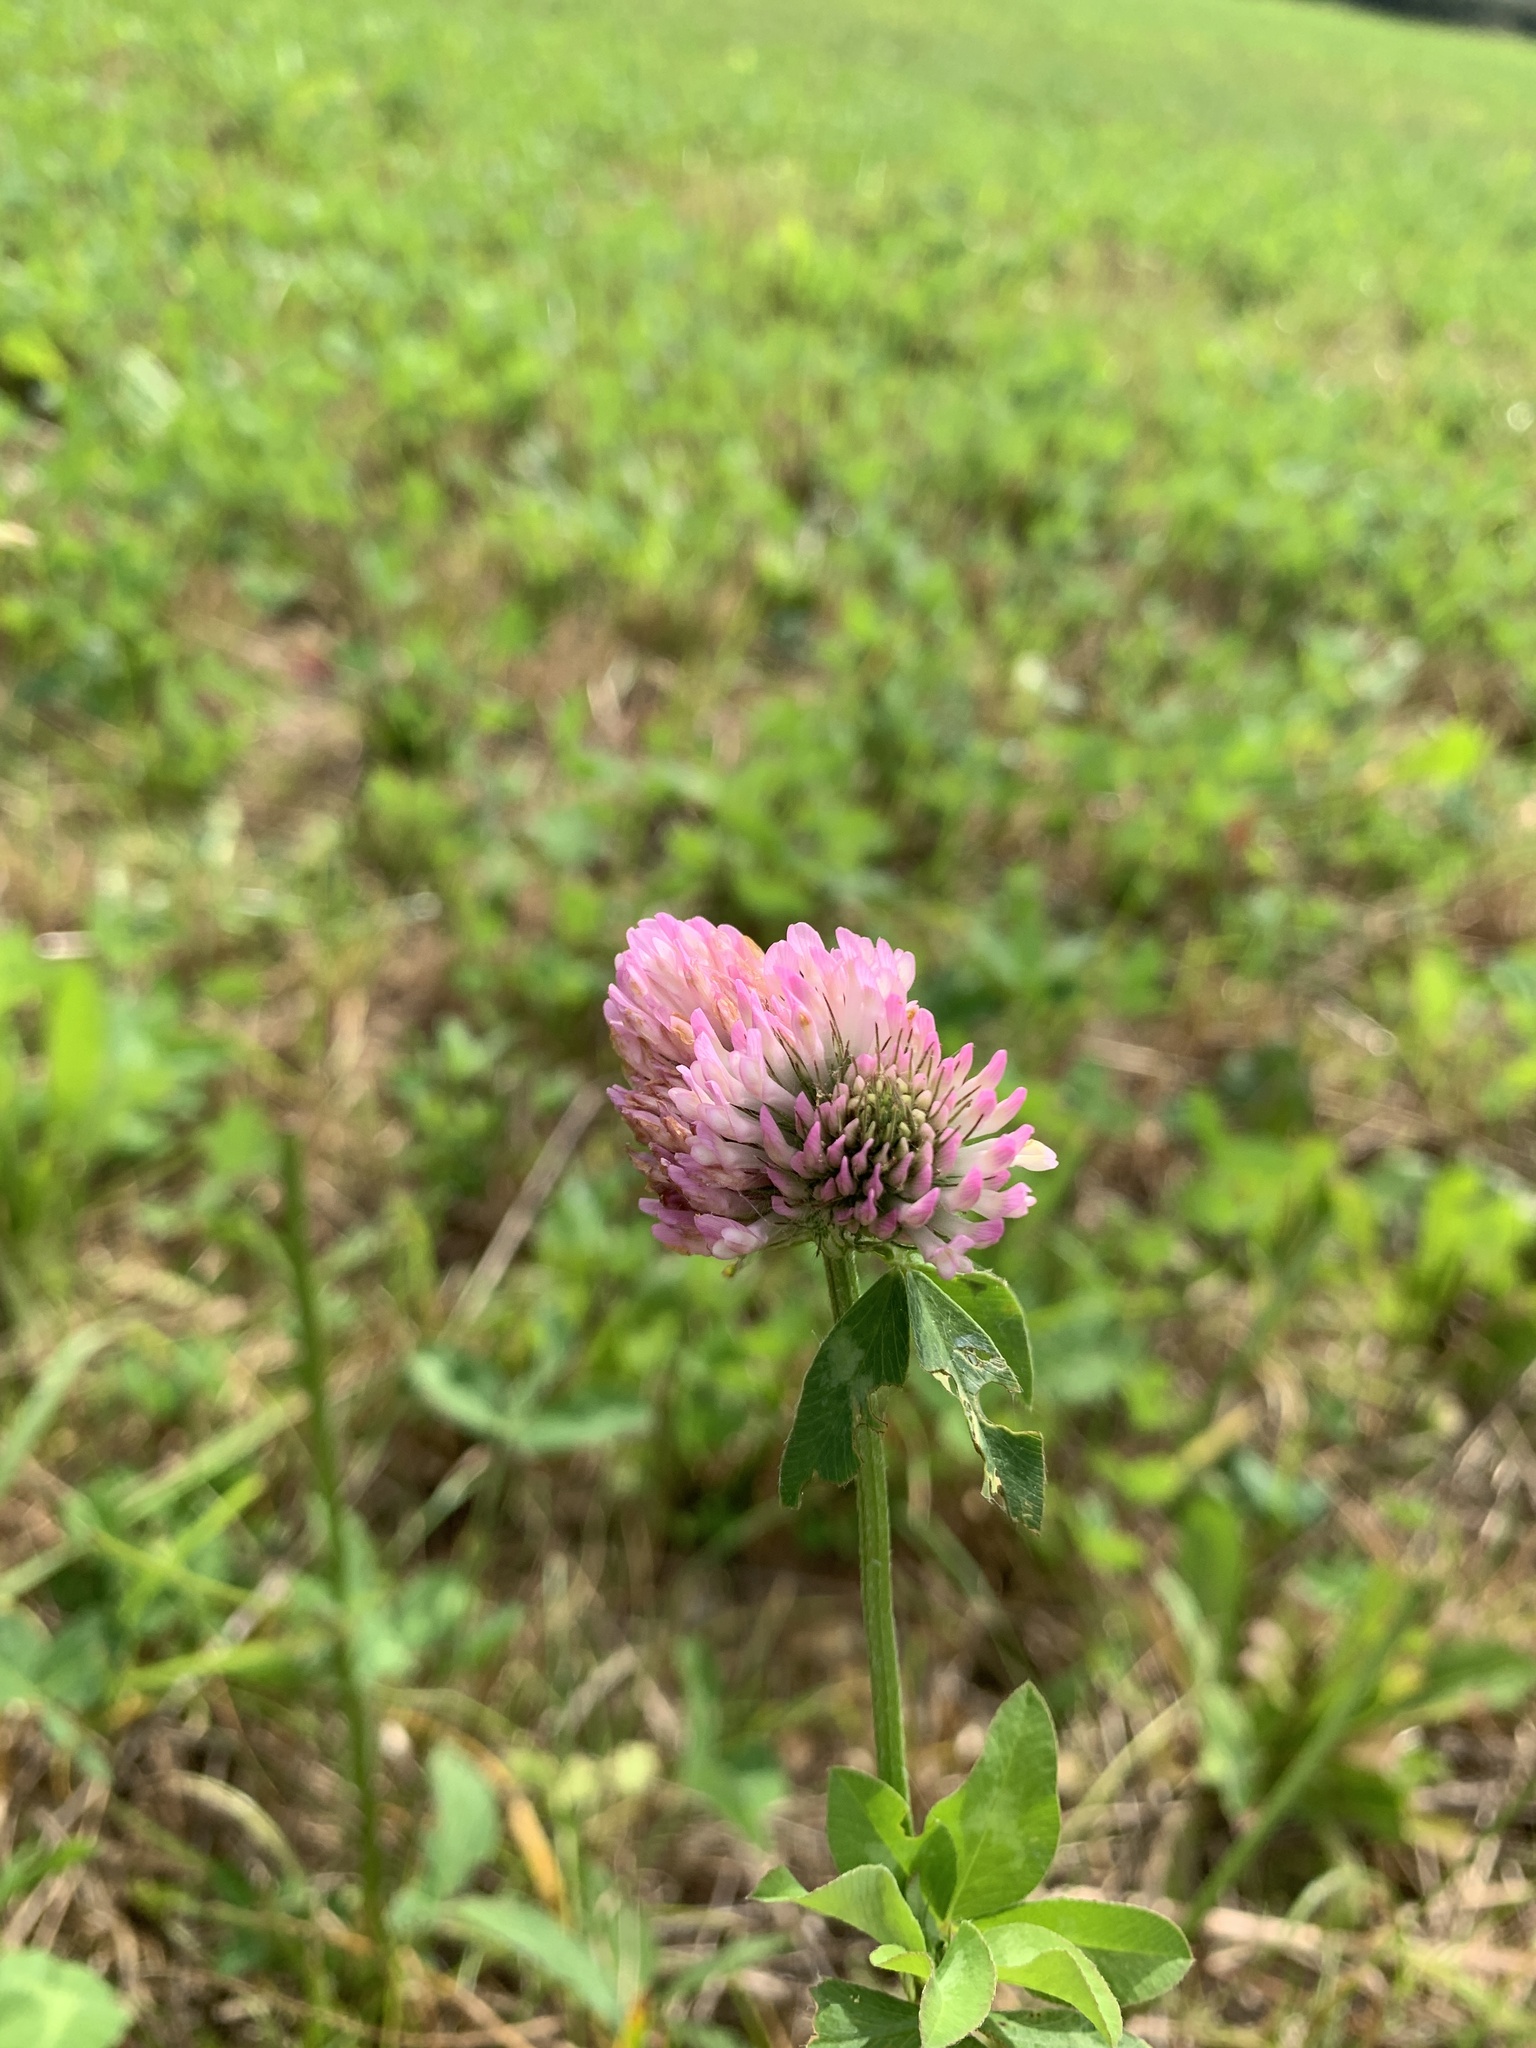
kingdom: Plantae
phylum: Tracheophyta
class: Magnoliopsida
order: Fabales
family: Fabaceae
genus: Trifolium
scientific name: Trifolium pratense
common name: Red clover
